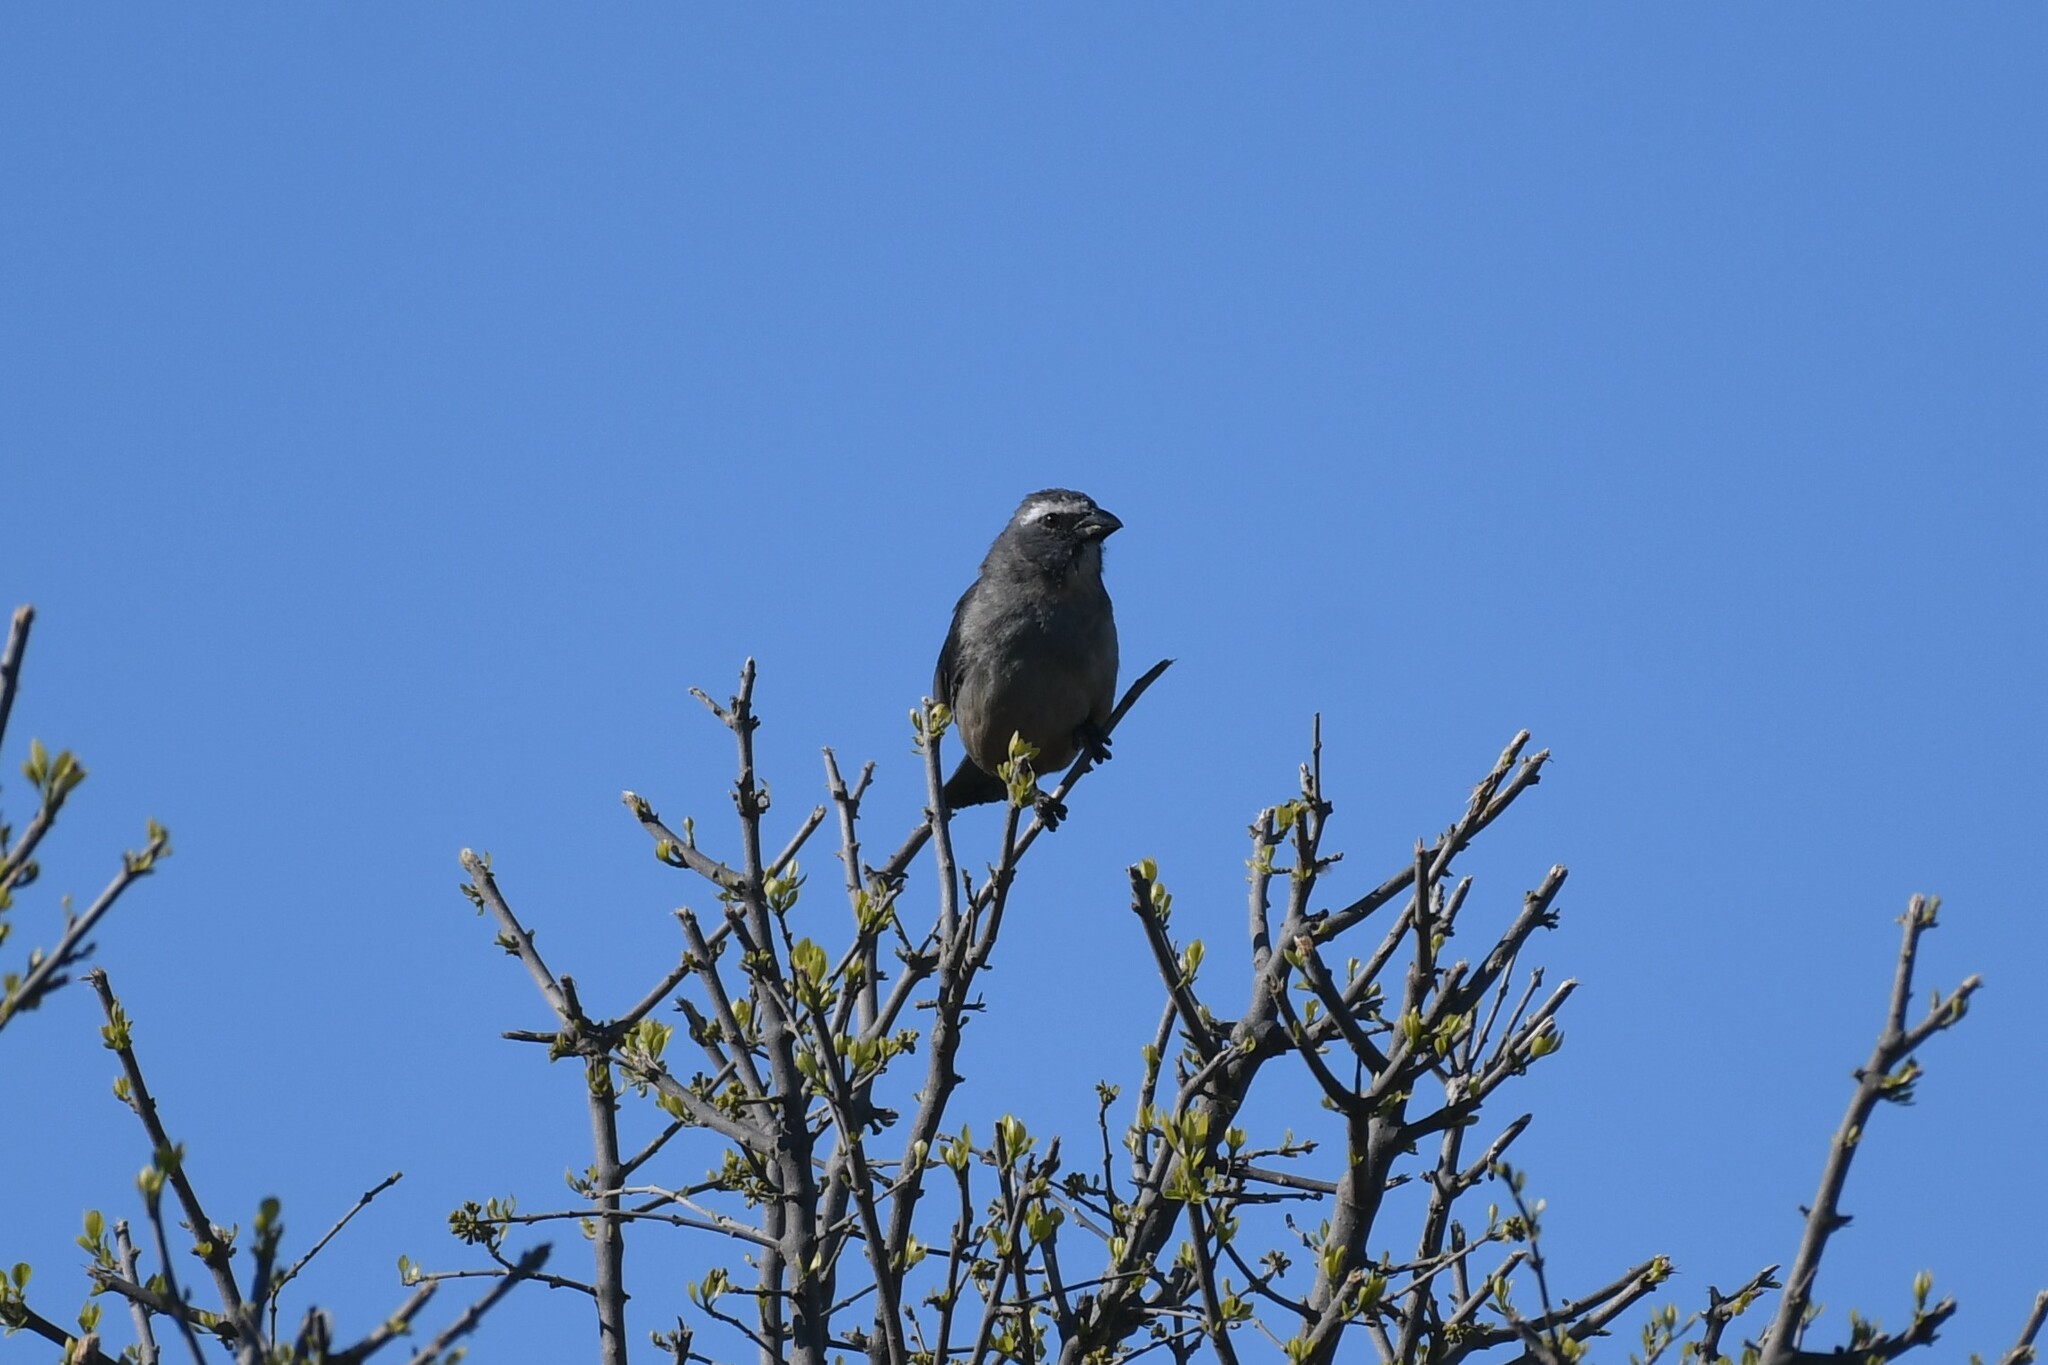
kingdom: Animalia
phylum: Chordata
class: Aves
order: Passeriformes
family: Thraupidae
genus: Saltator
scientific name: Saltator coerulescens
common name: Grayish saltator
